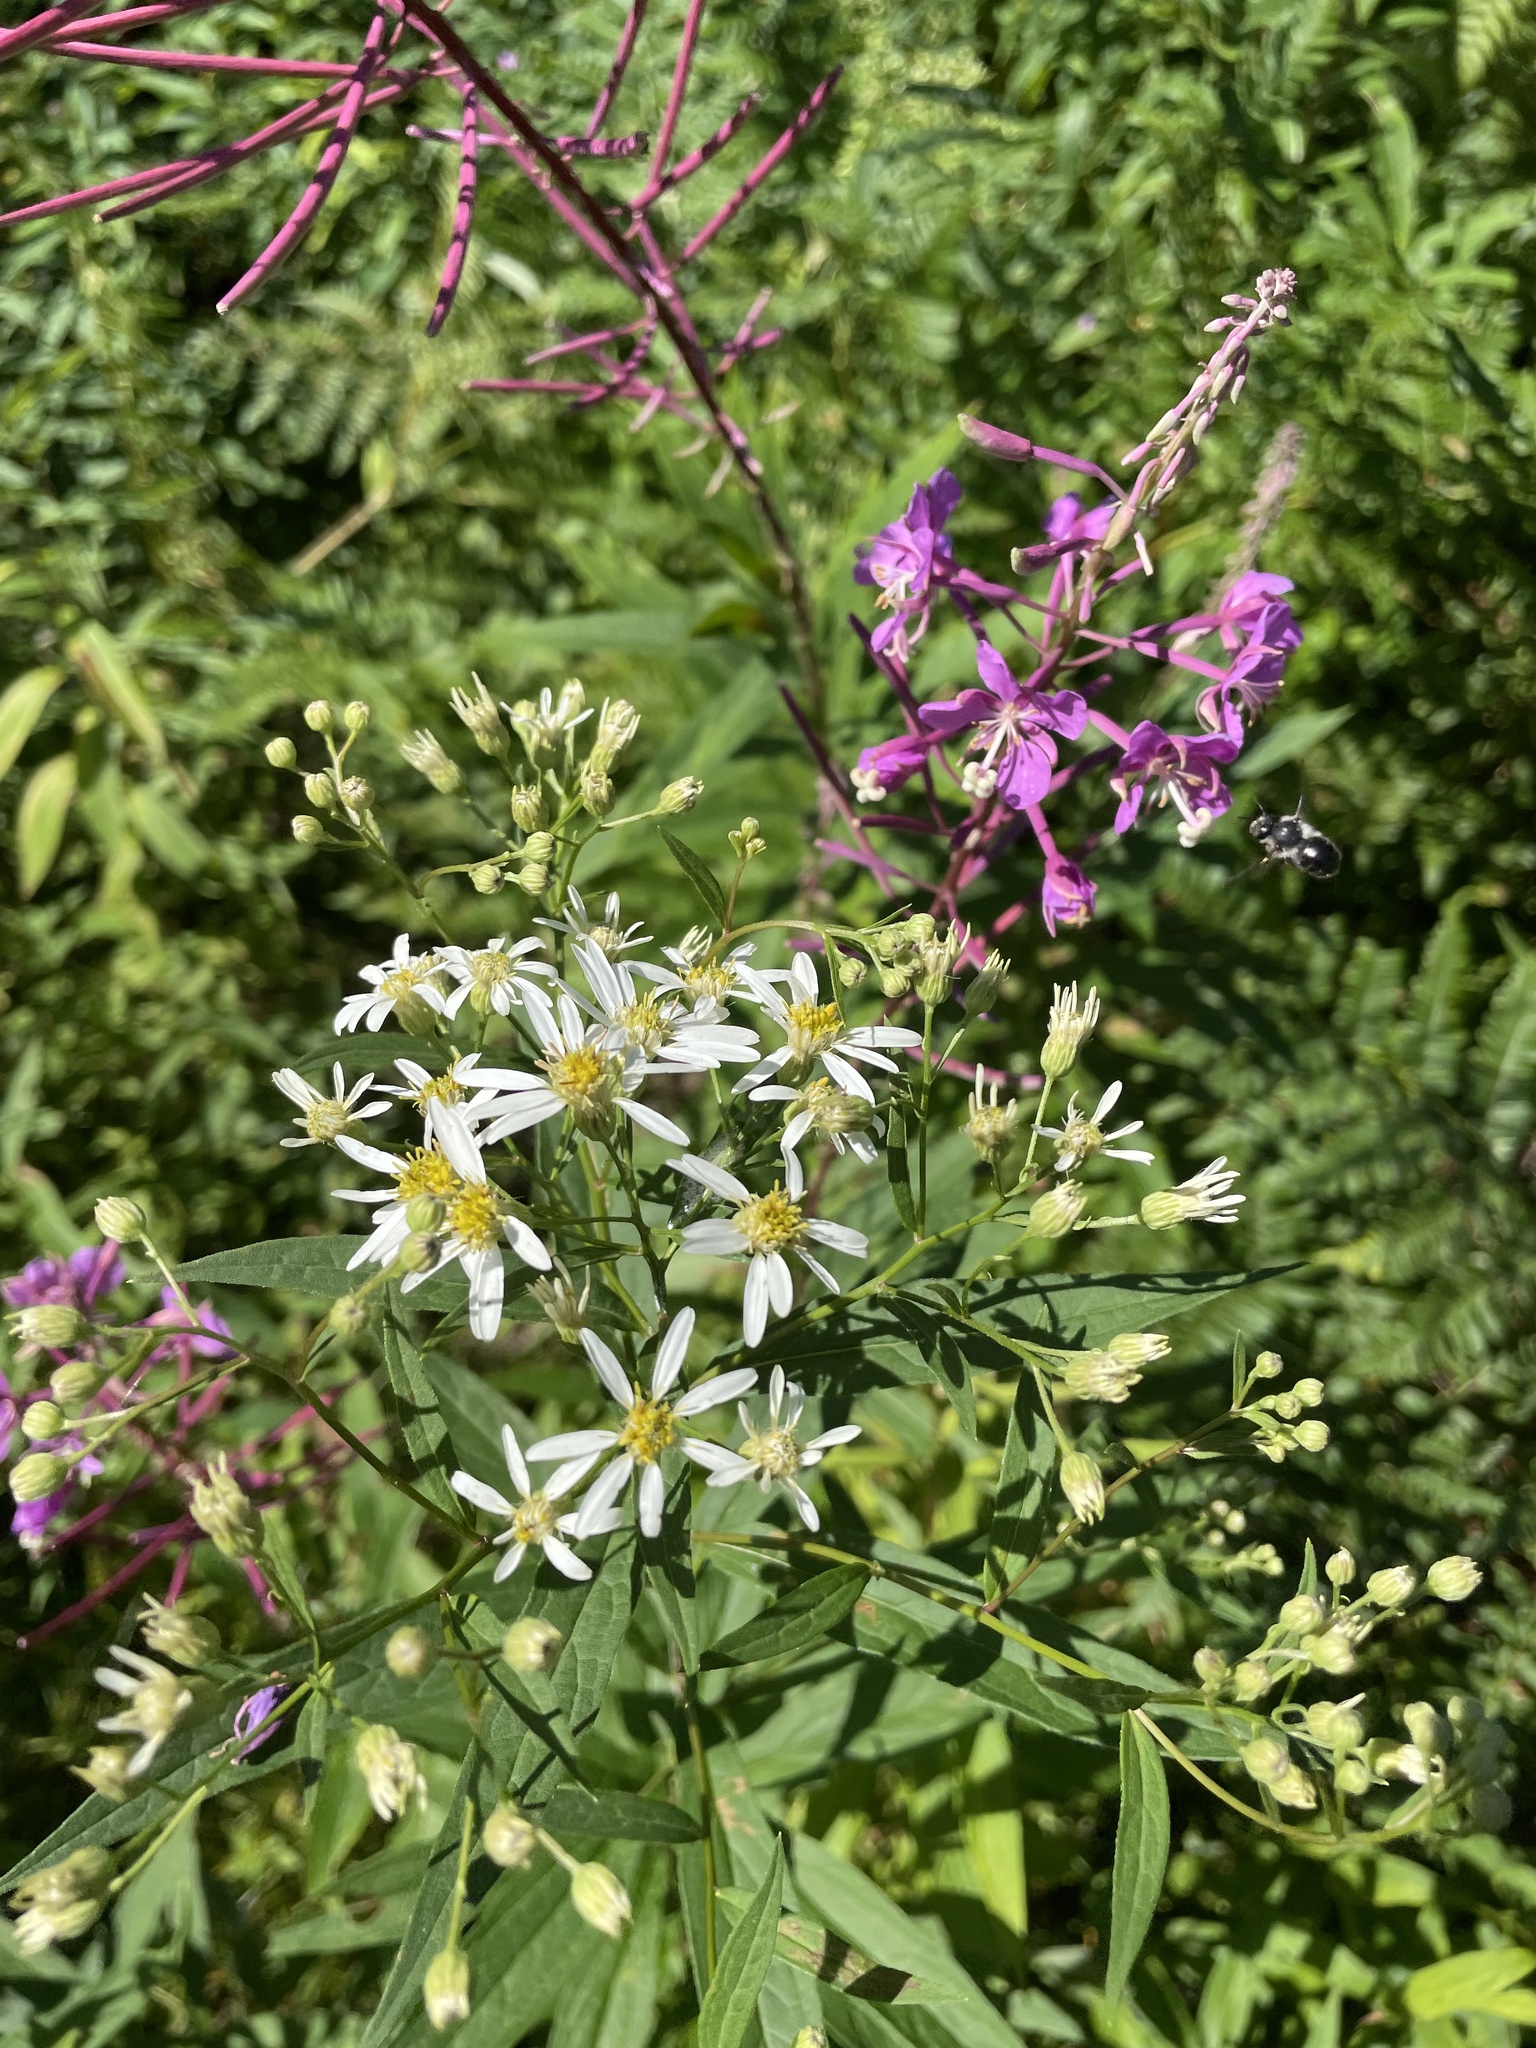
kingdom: Plantae
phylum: Tracheophyta
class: Magnoliopsida
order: Asterales
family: Asteraceae
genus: Doellingeria
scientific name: Doellingeria umbellata
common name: Flat-top white aster
